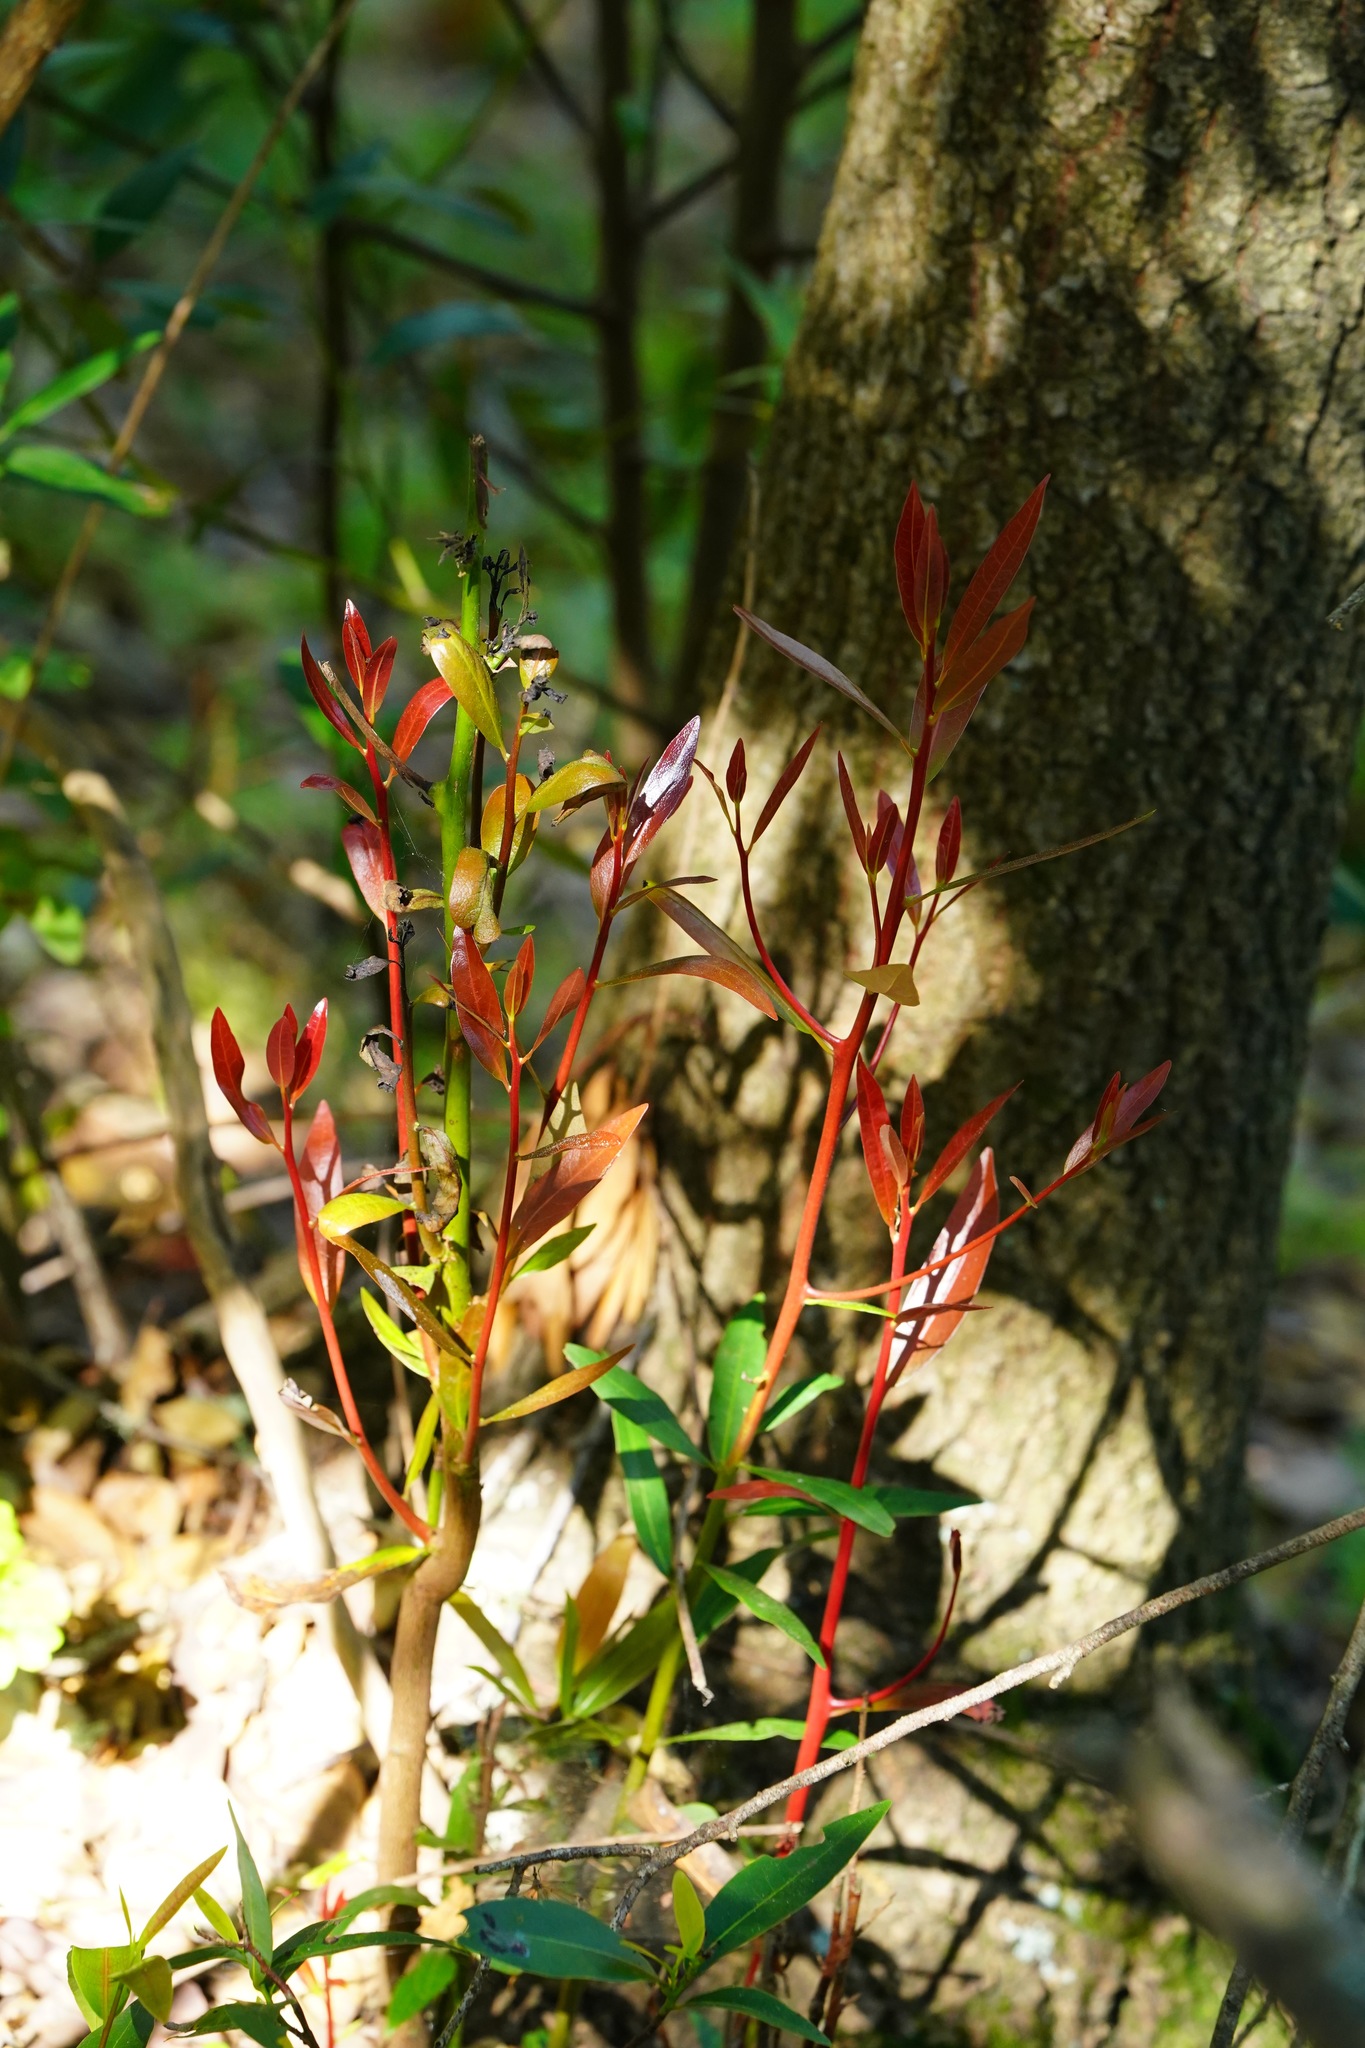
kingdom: Plantae
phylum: Tracheophyta
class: Magnoliopsida
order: Laurales
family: Lauraceae
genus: Umbellularia
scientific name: Umbellularia californica
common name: California bay
